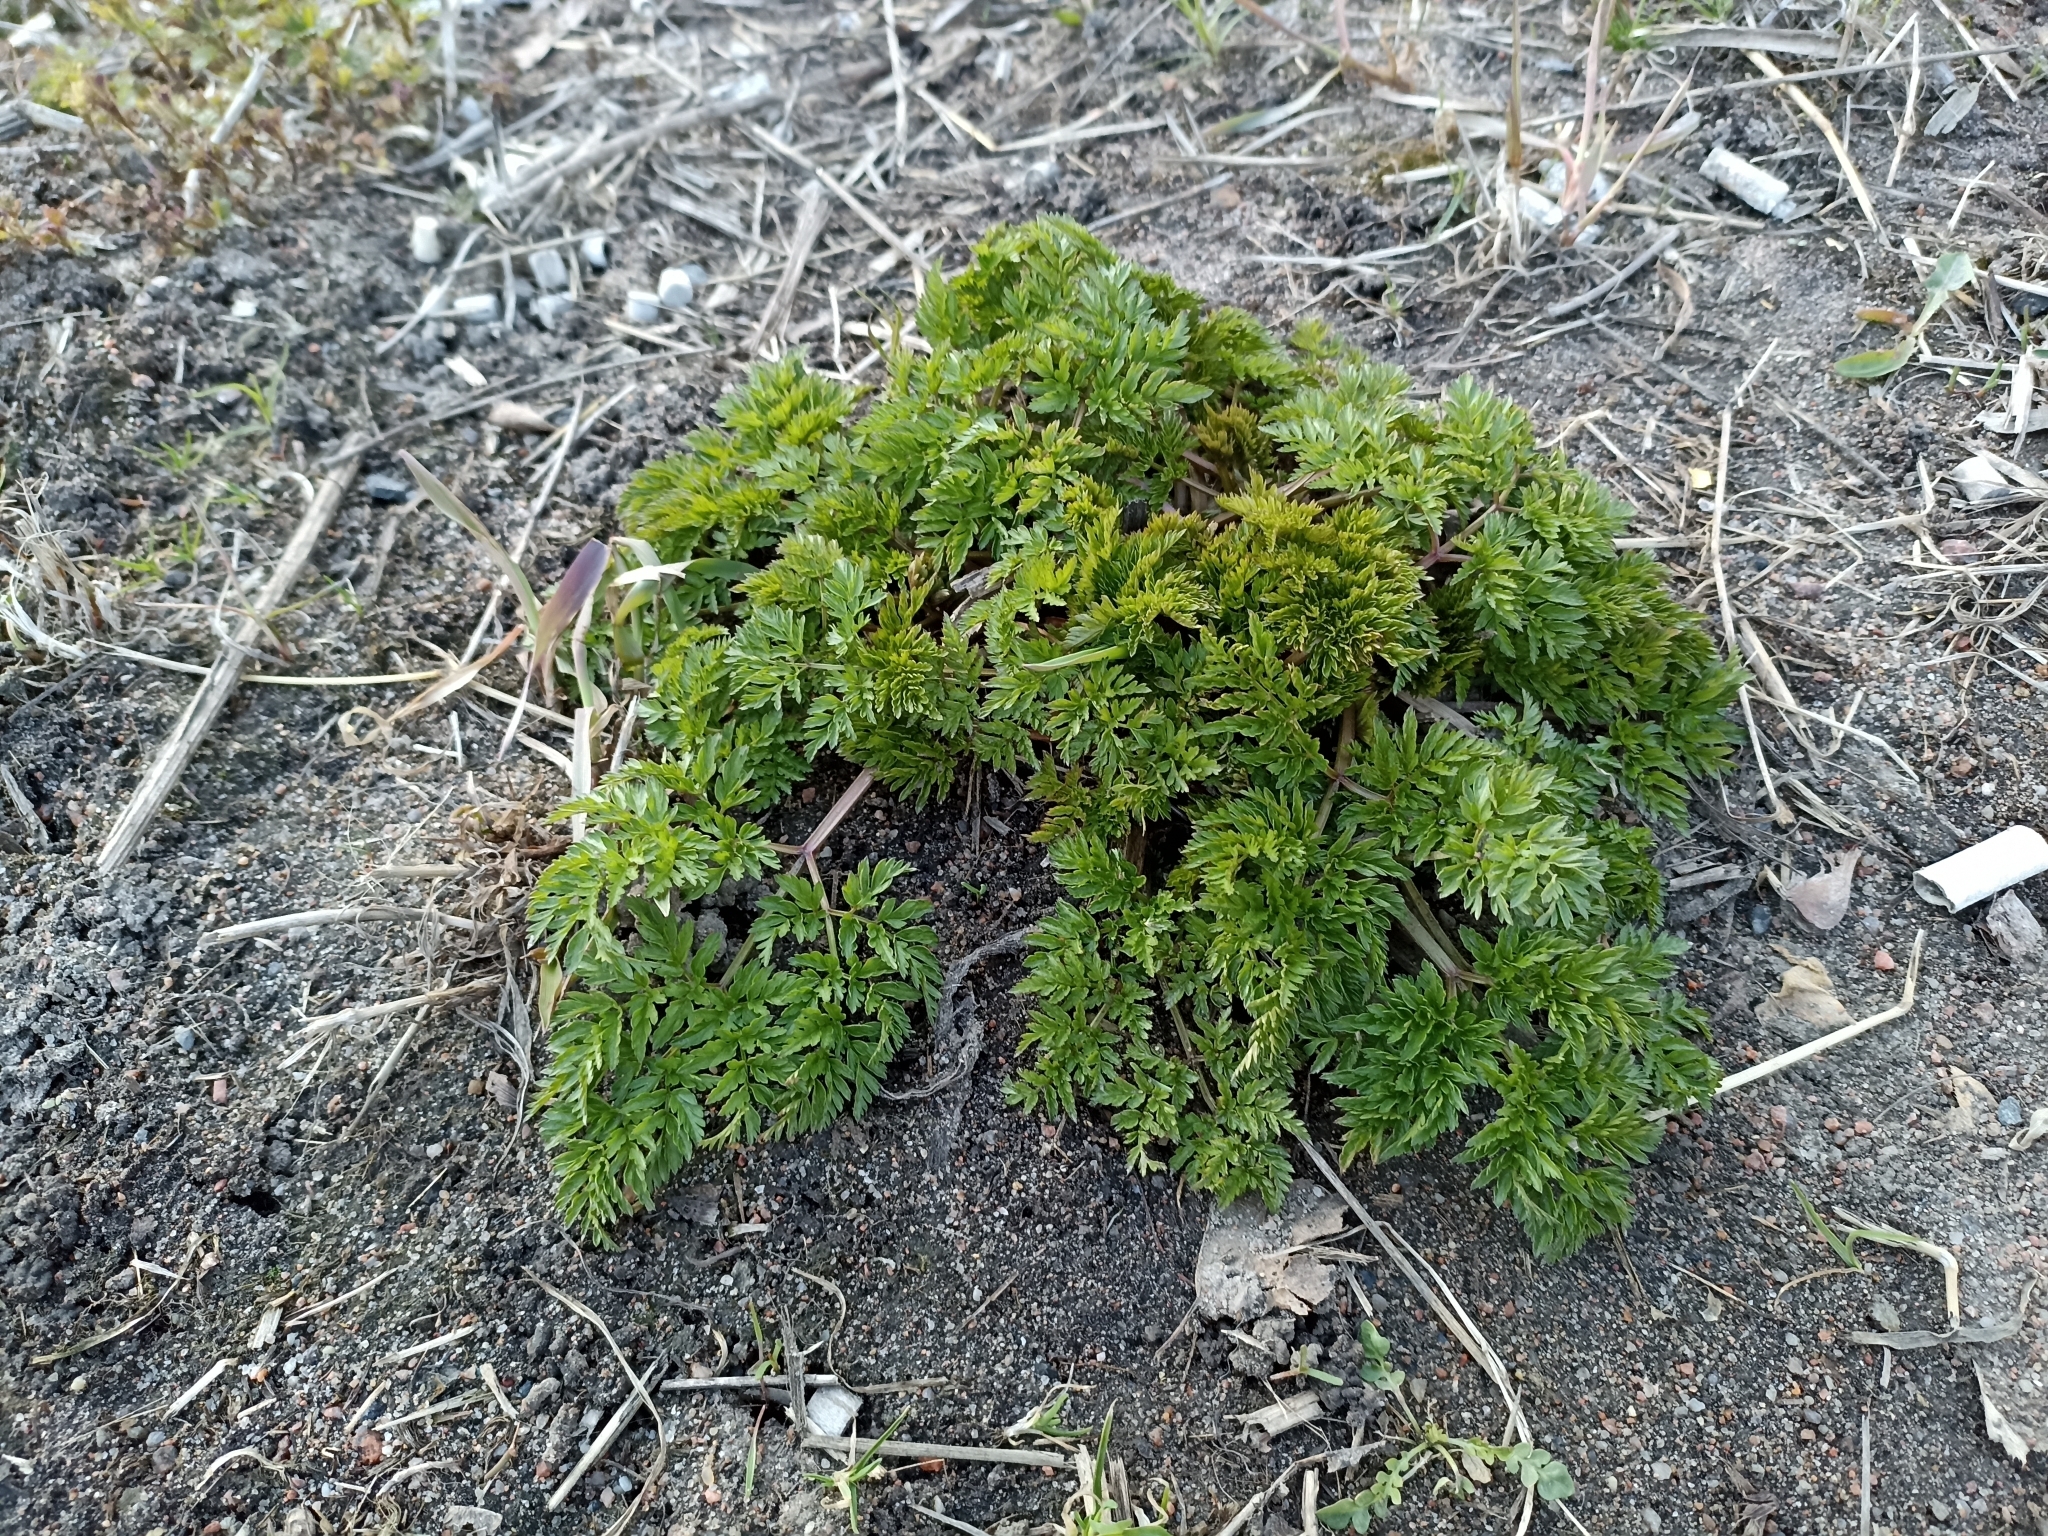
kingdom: Plantae
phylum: Tracheophyta
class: Magnoliopsida
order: Apiales
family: Apiaceae
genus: Anthriscus
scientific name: Anthriscus sylvestris
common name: Cow parsley
